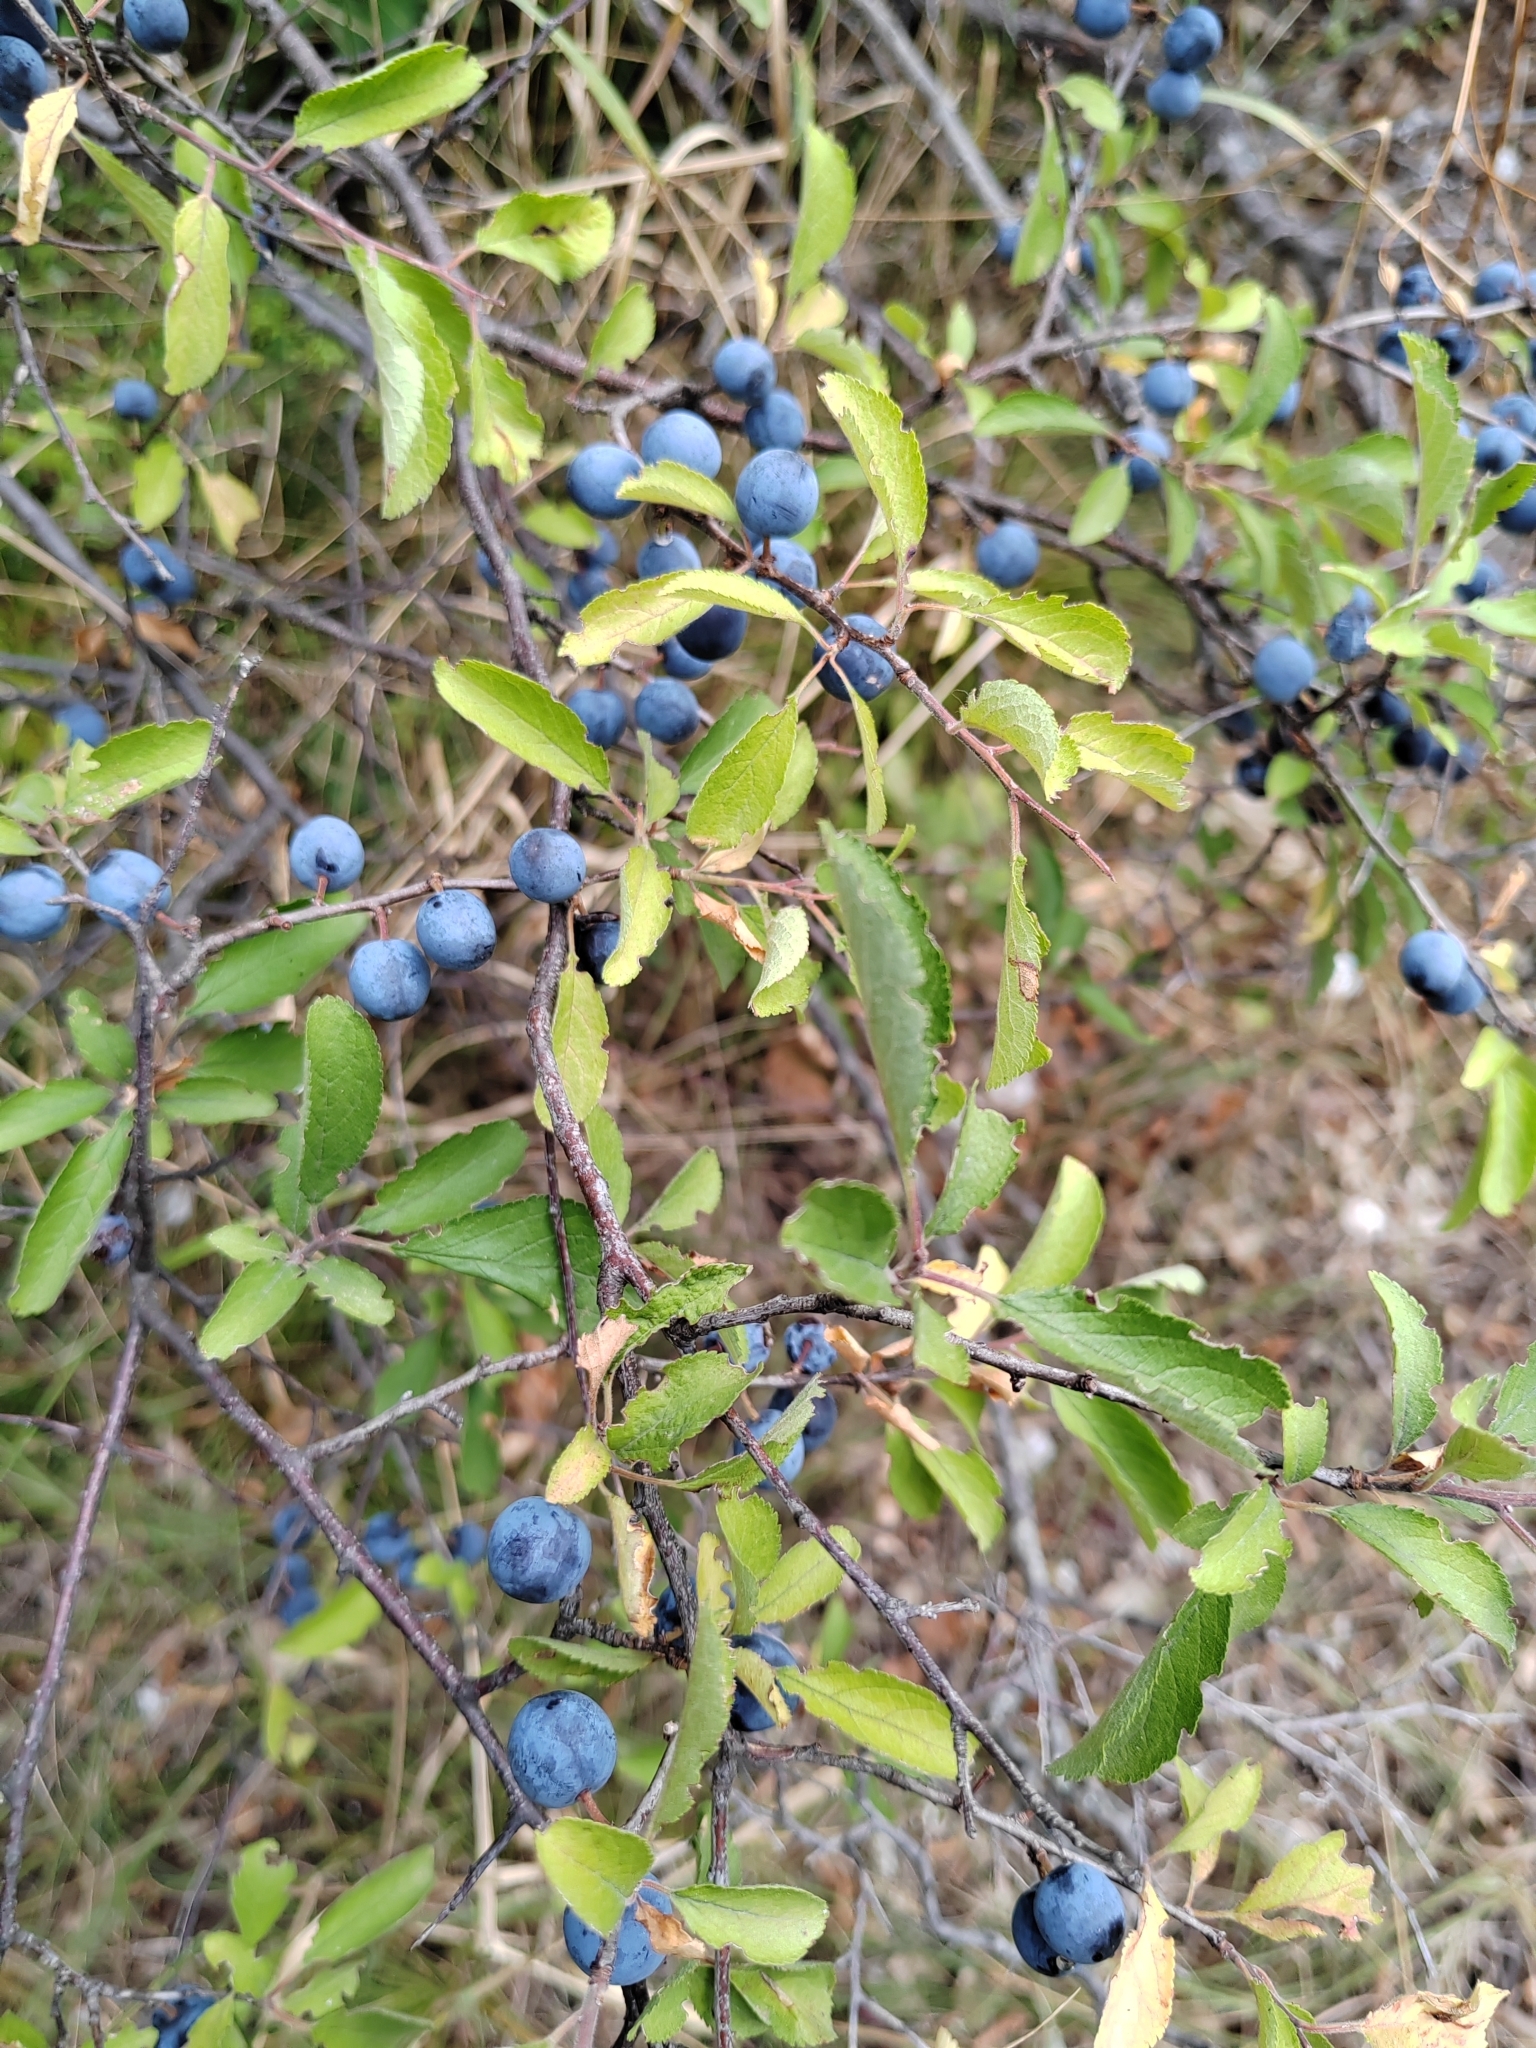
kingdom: Plantae
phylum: Tracheophyta
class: Magnoliopsida
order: Rosales
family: Rosaceae
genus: Prunus
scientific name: Prunus spinosa
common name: Blackthorn
